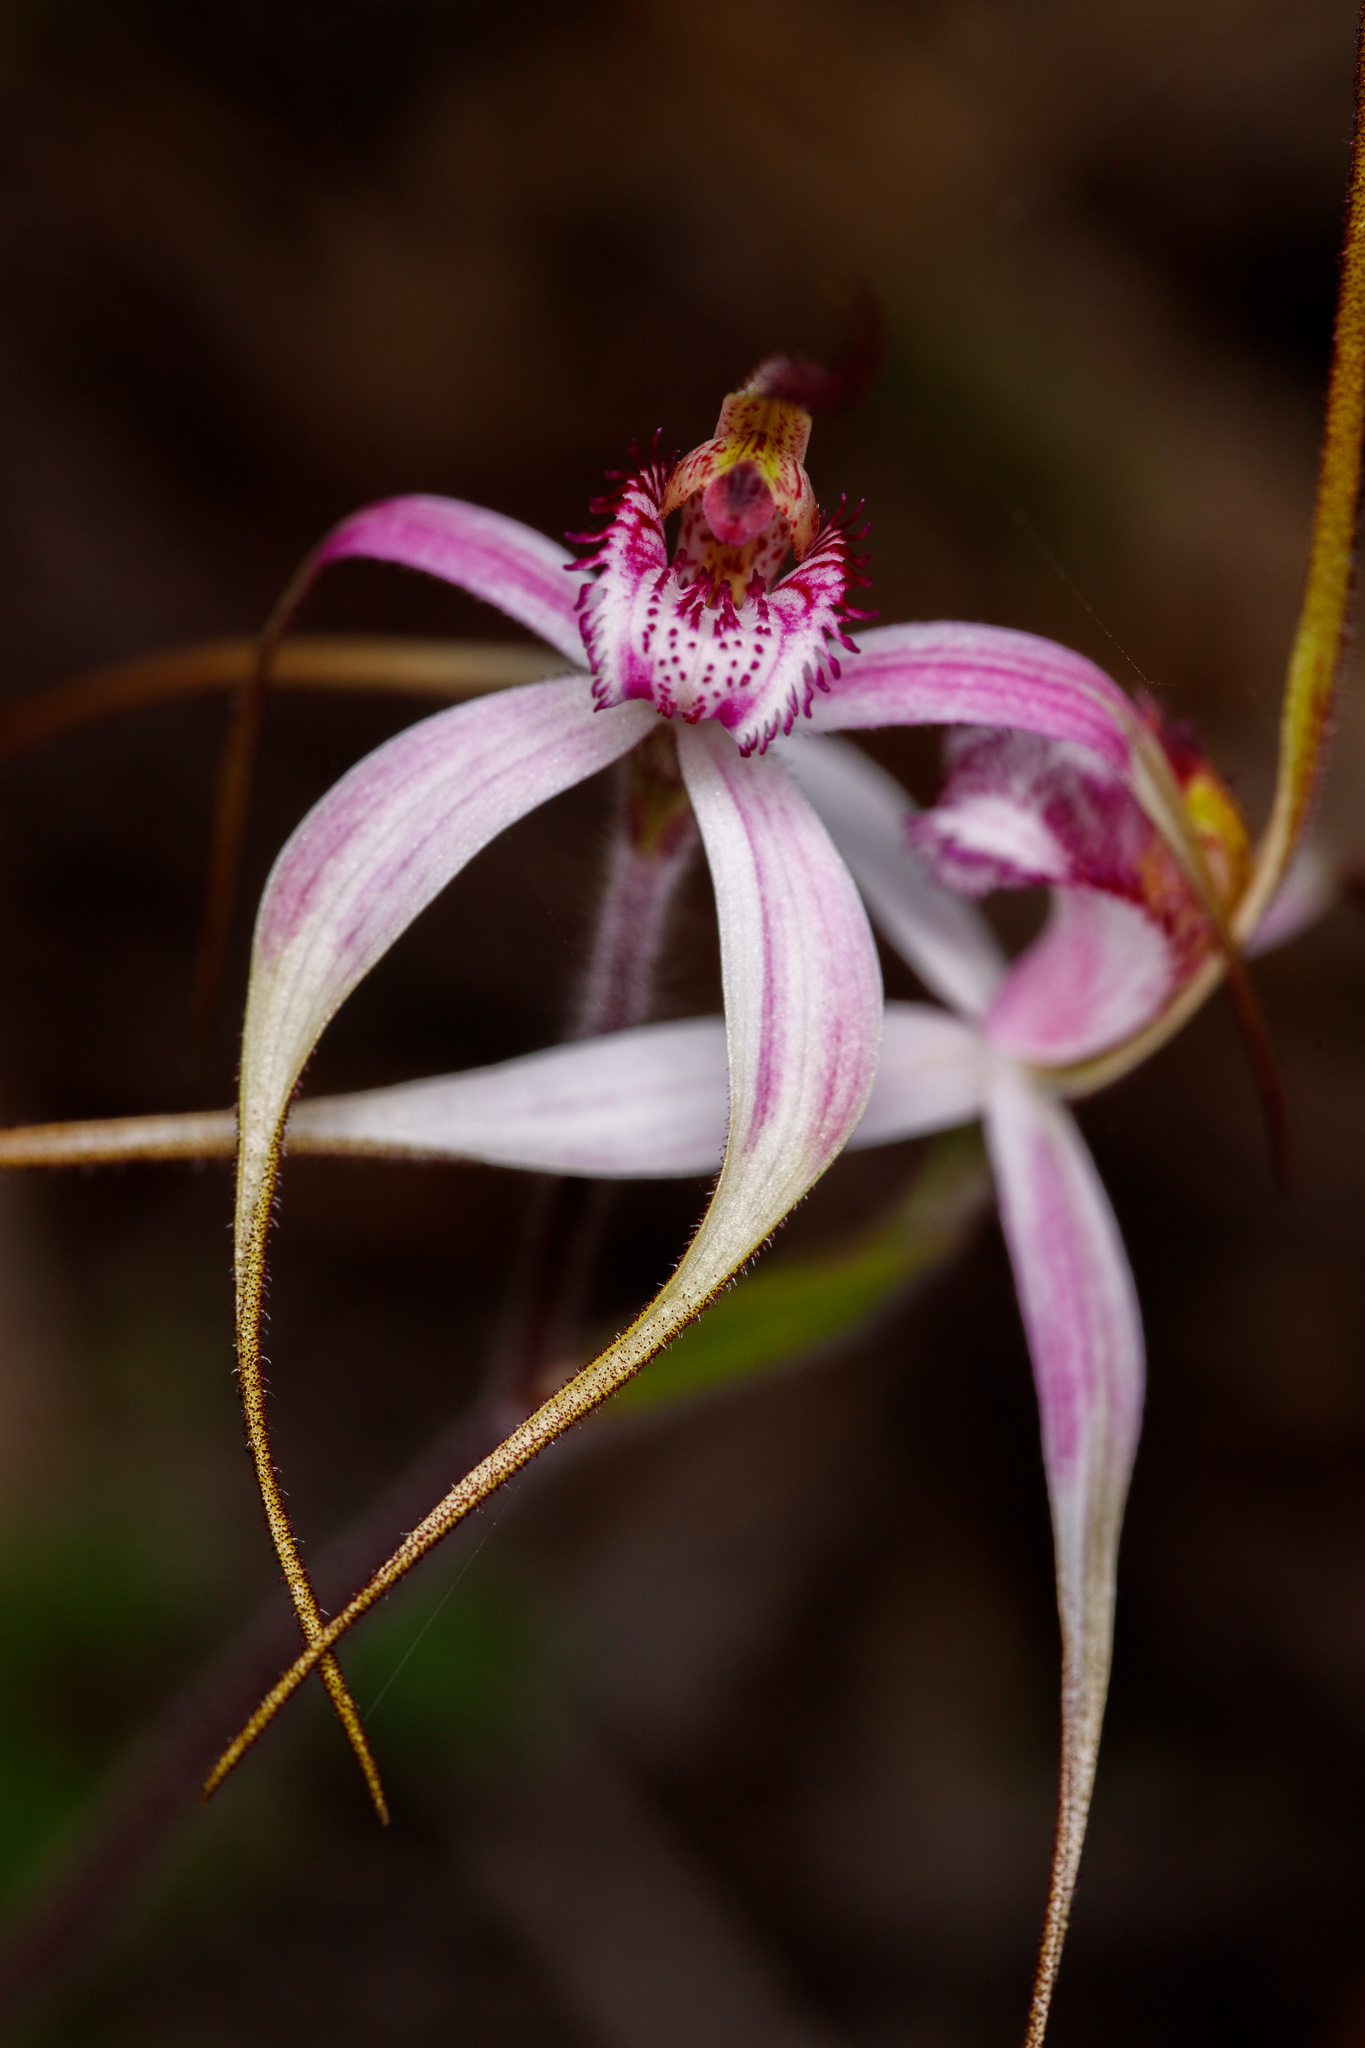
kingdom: Plantae
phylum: Tracheophyta
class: Liliopsida
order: Asparagales
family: Orchidaceae
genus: Caladenia
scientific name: Caladenia suffusa
